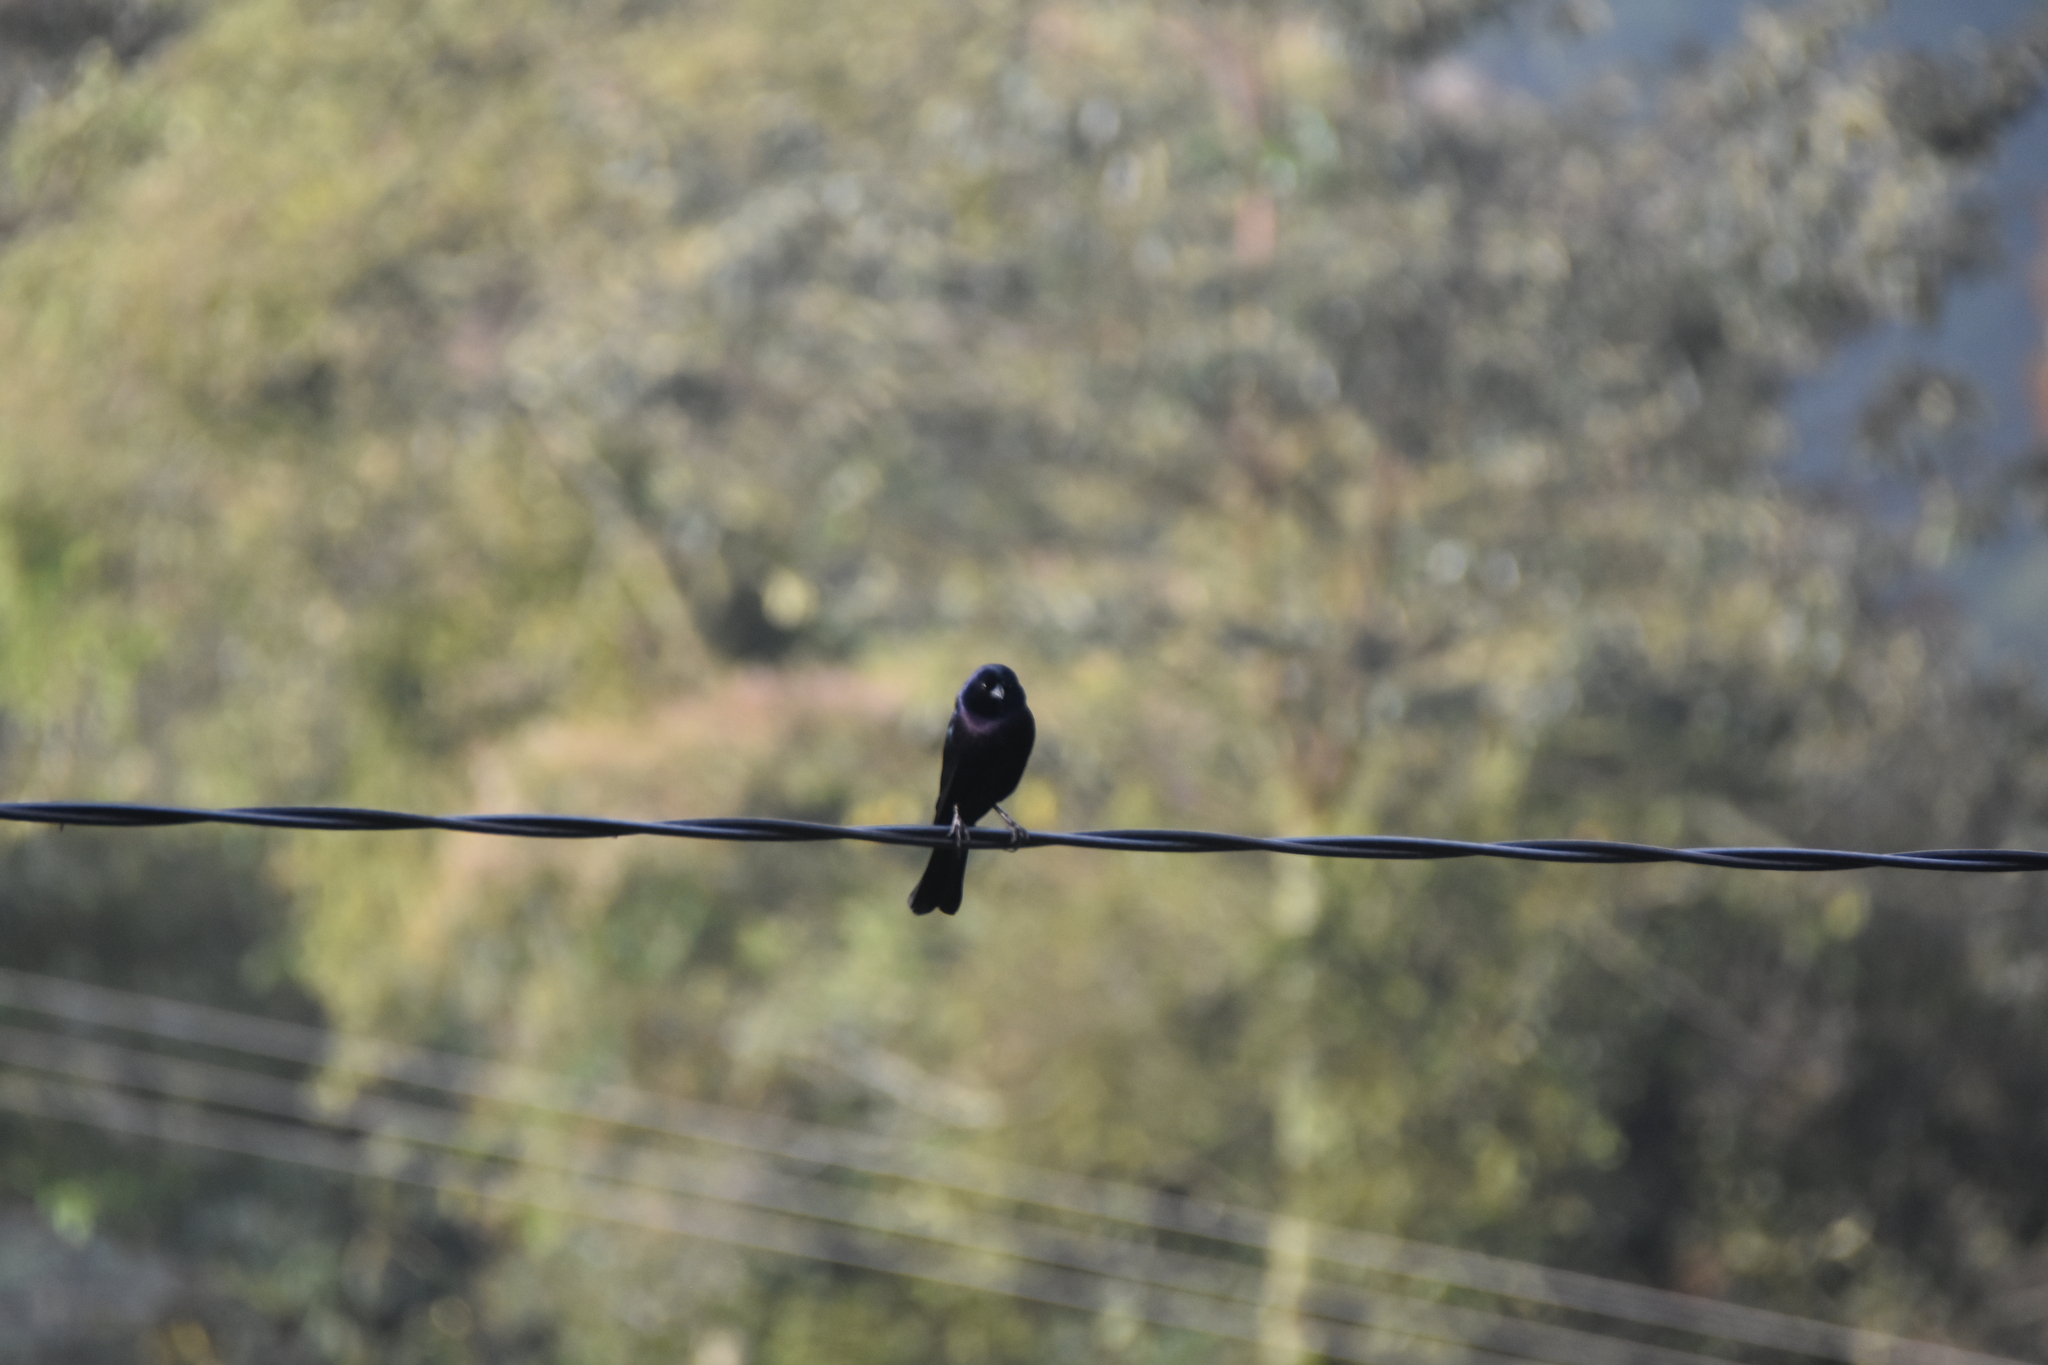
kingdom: Animalia
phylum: Chordata
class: Aves
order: Passeriformes
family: Icteridae
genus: Molothrus
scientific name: Molothrus bonariensis
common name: Shiny cowbird
